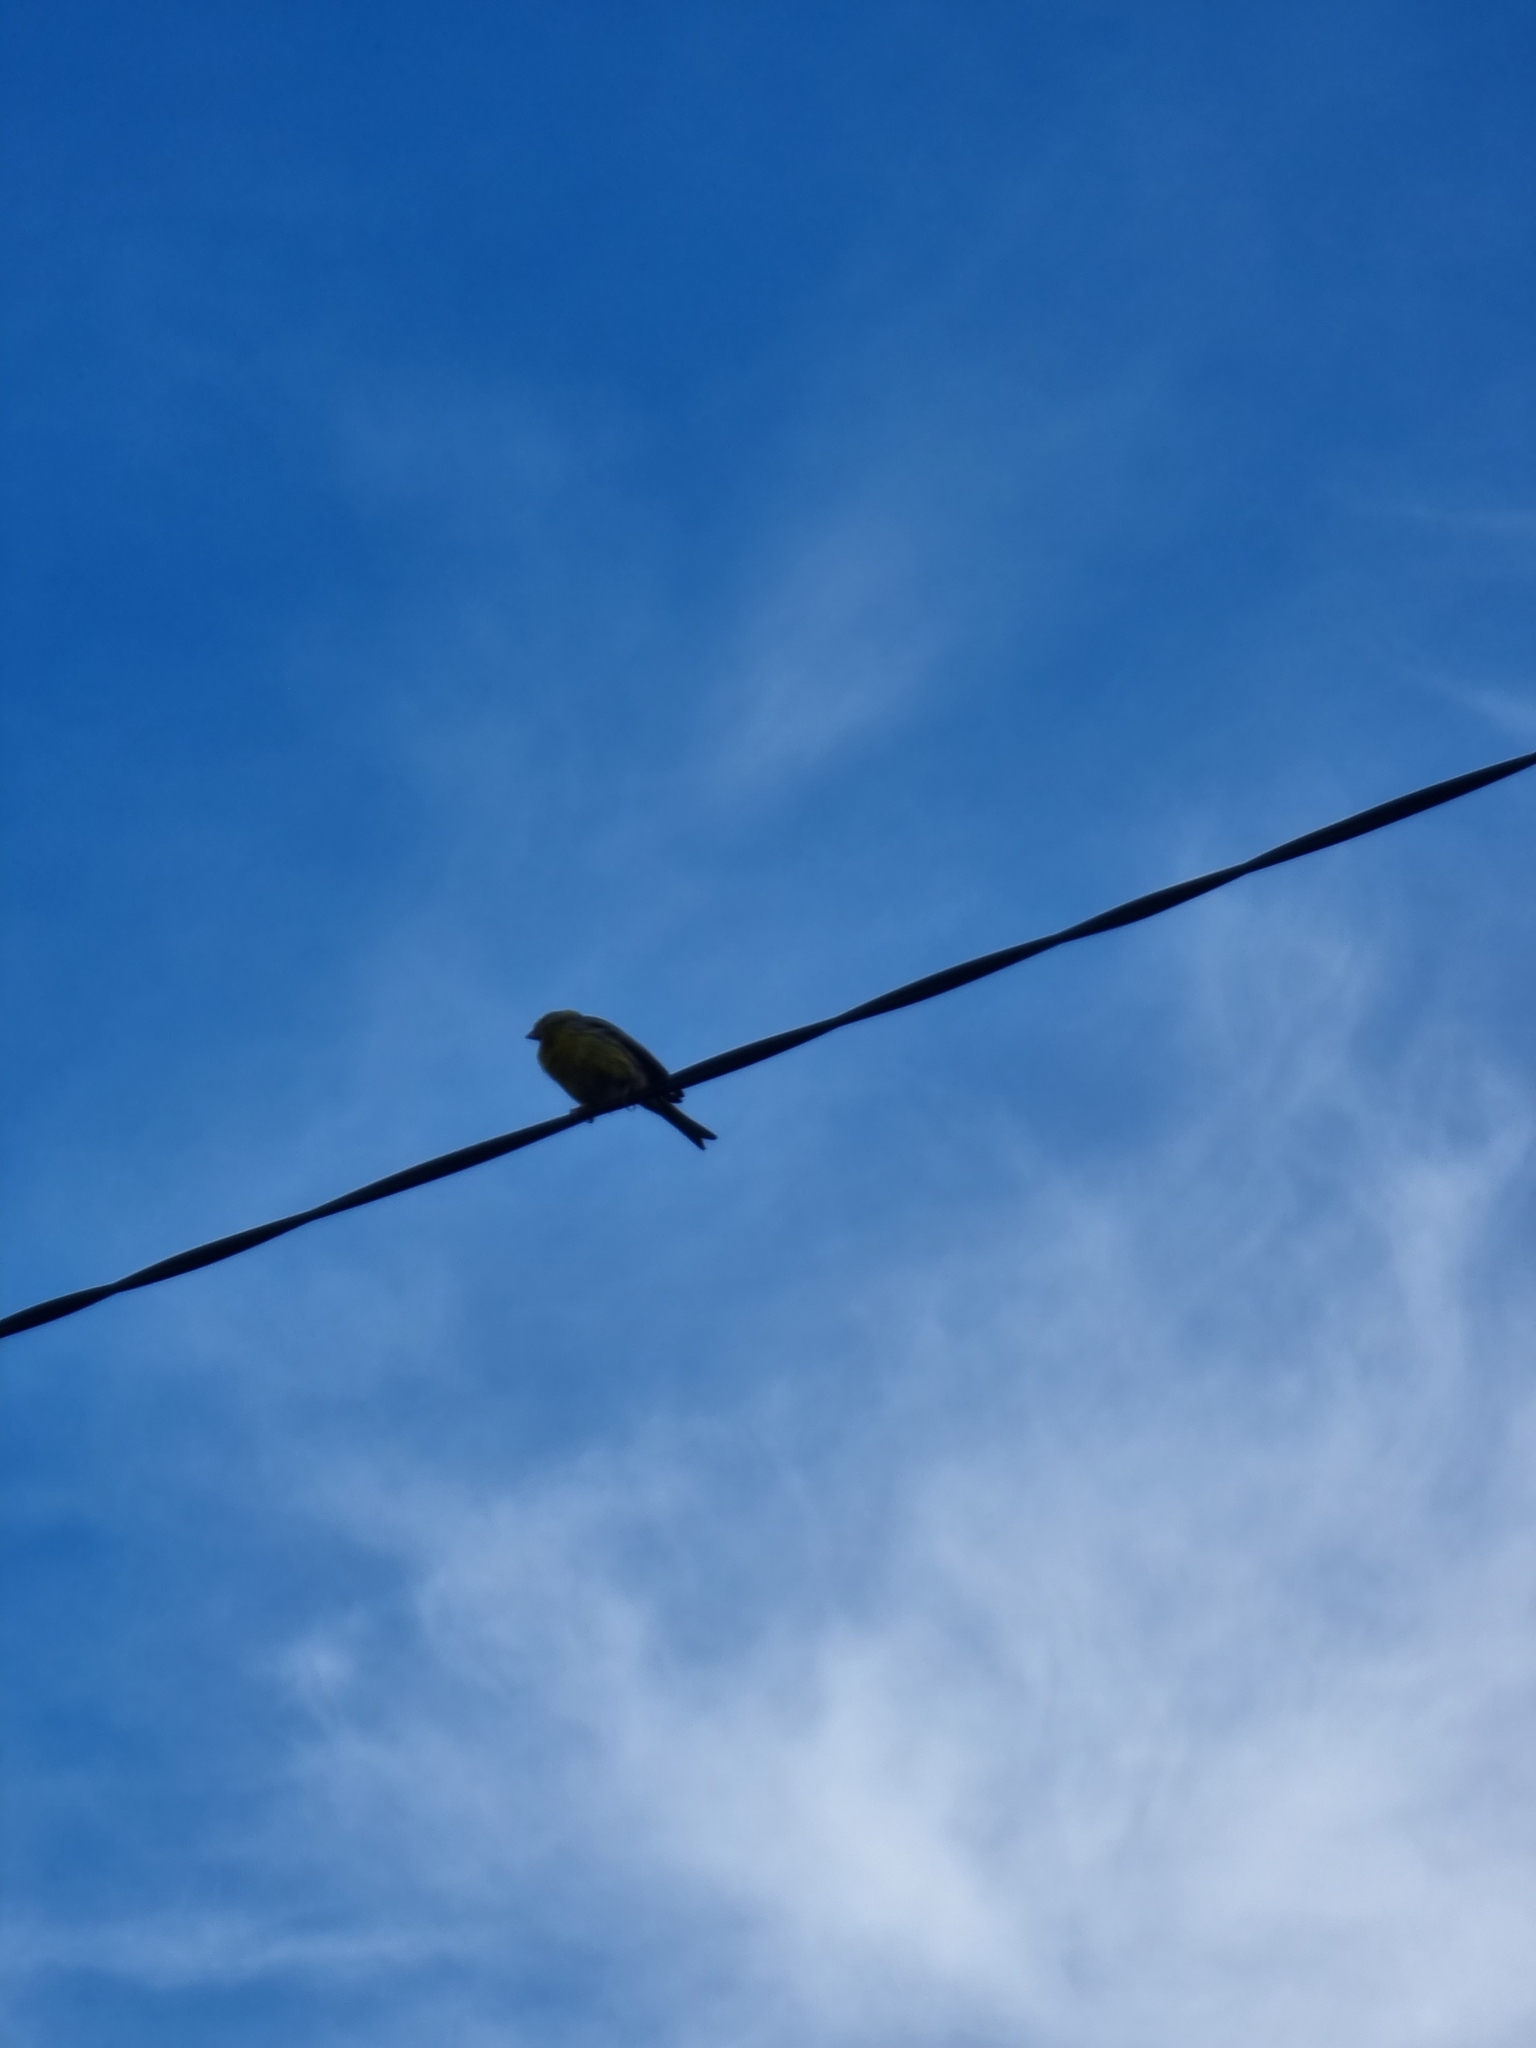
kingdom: Animalia
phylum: Chordata
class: Aves
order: Passeriformes
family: Fringillidae
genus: Serinus
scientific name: Serinus canaria
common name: Atlantic canary
